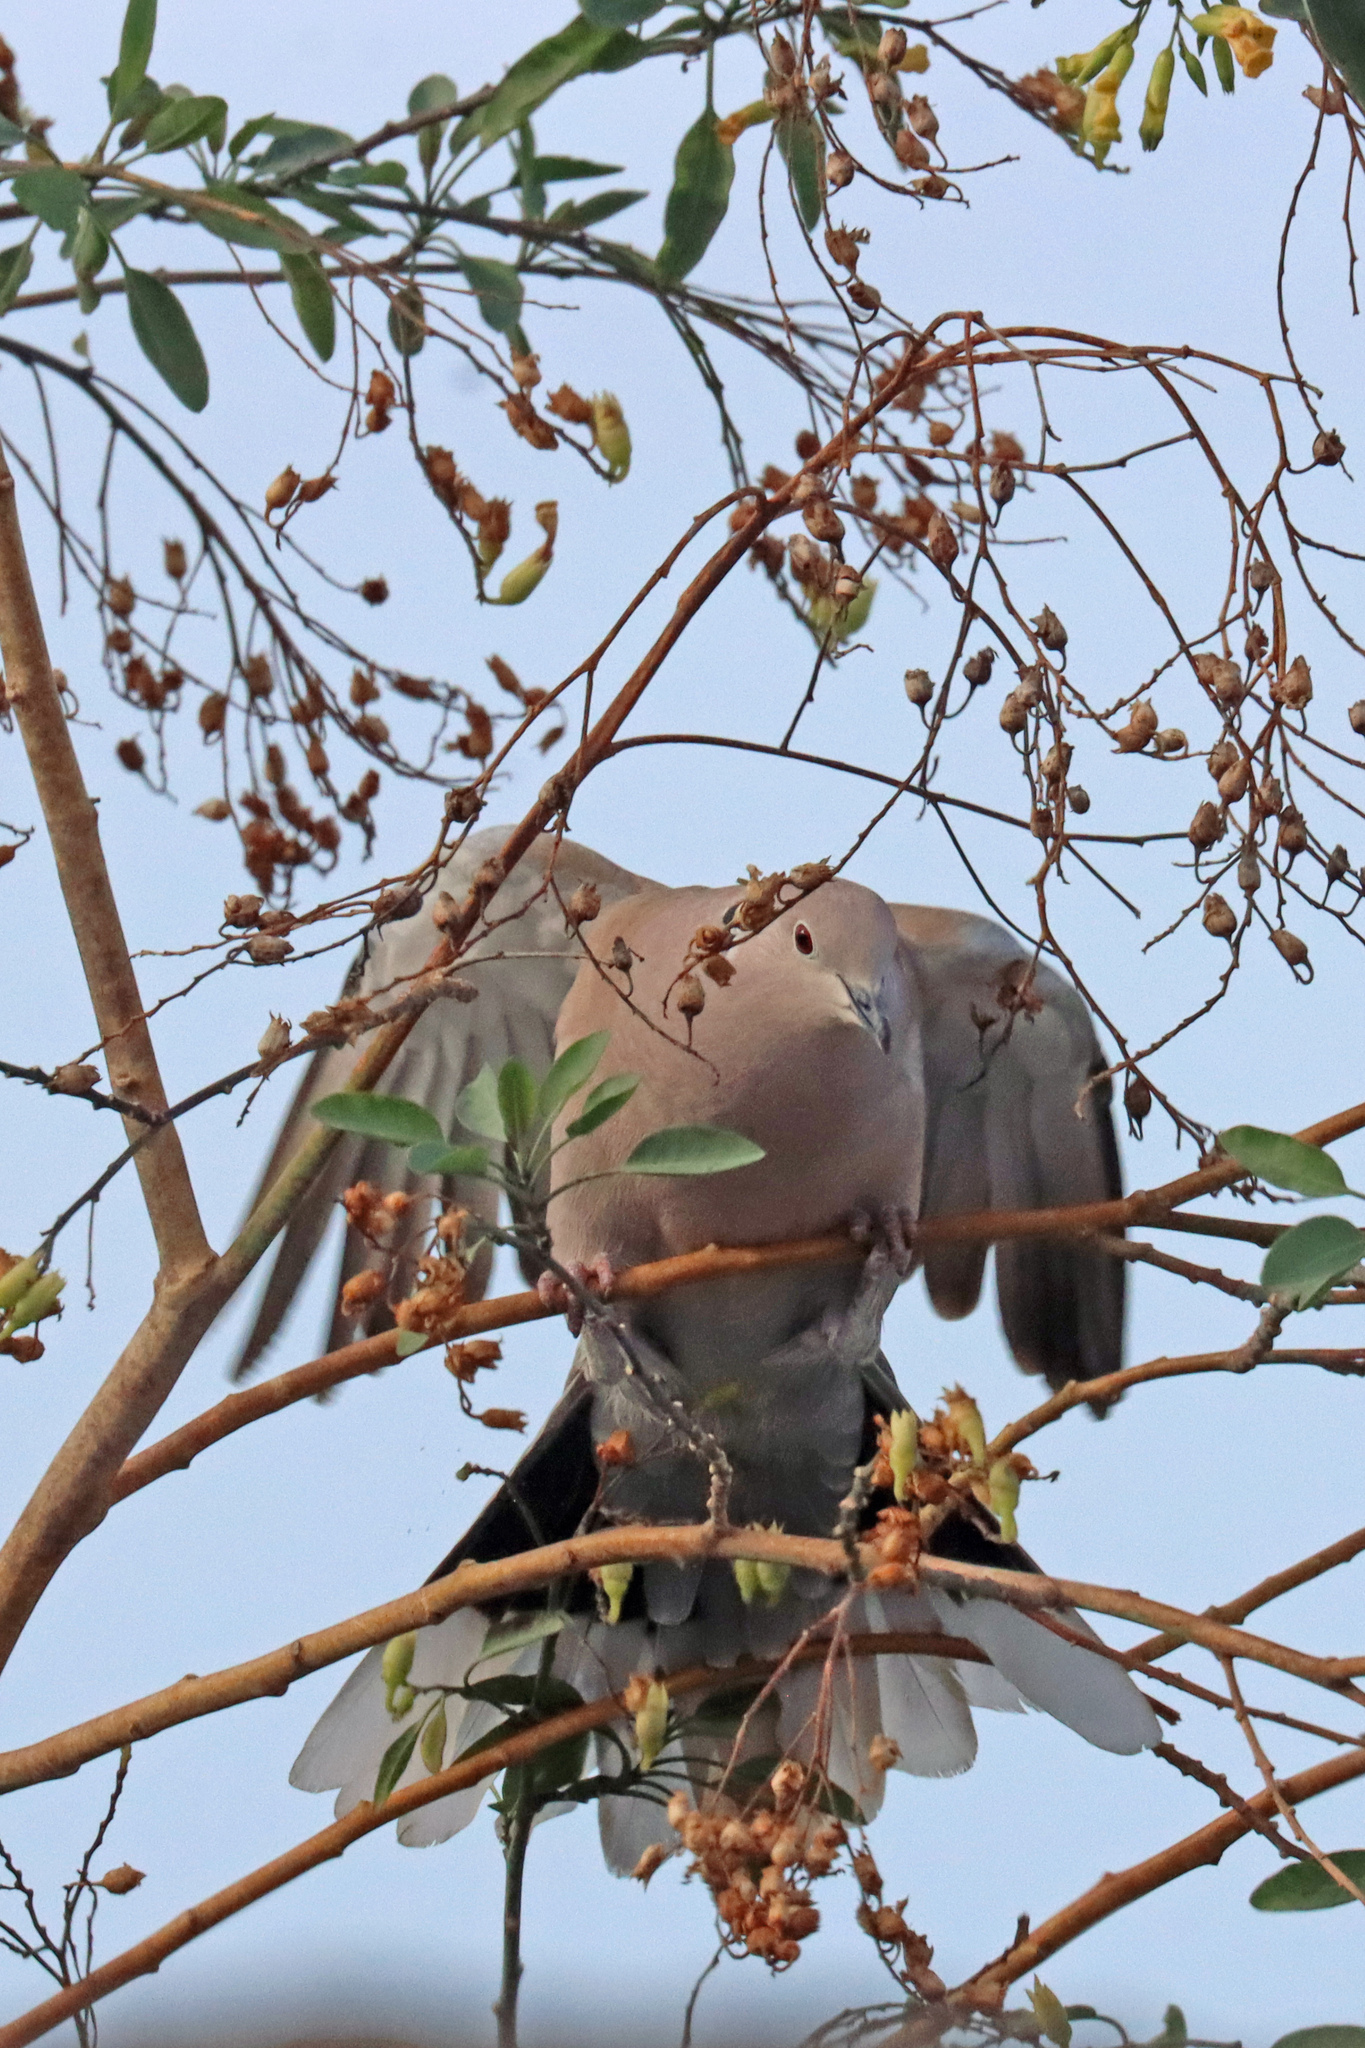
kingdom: Animalia
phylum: Chordata
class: Aves
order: Columbiformes
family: Columbidae
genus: Streptopelia
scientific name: Streptopelia decaocto
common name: Eurasian collared dove
